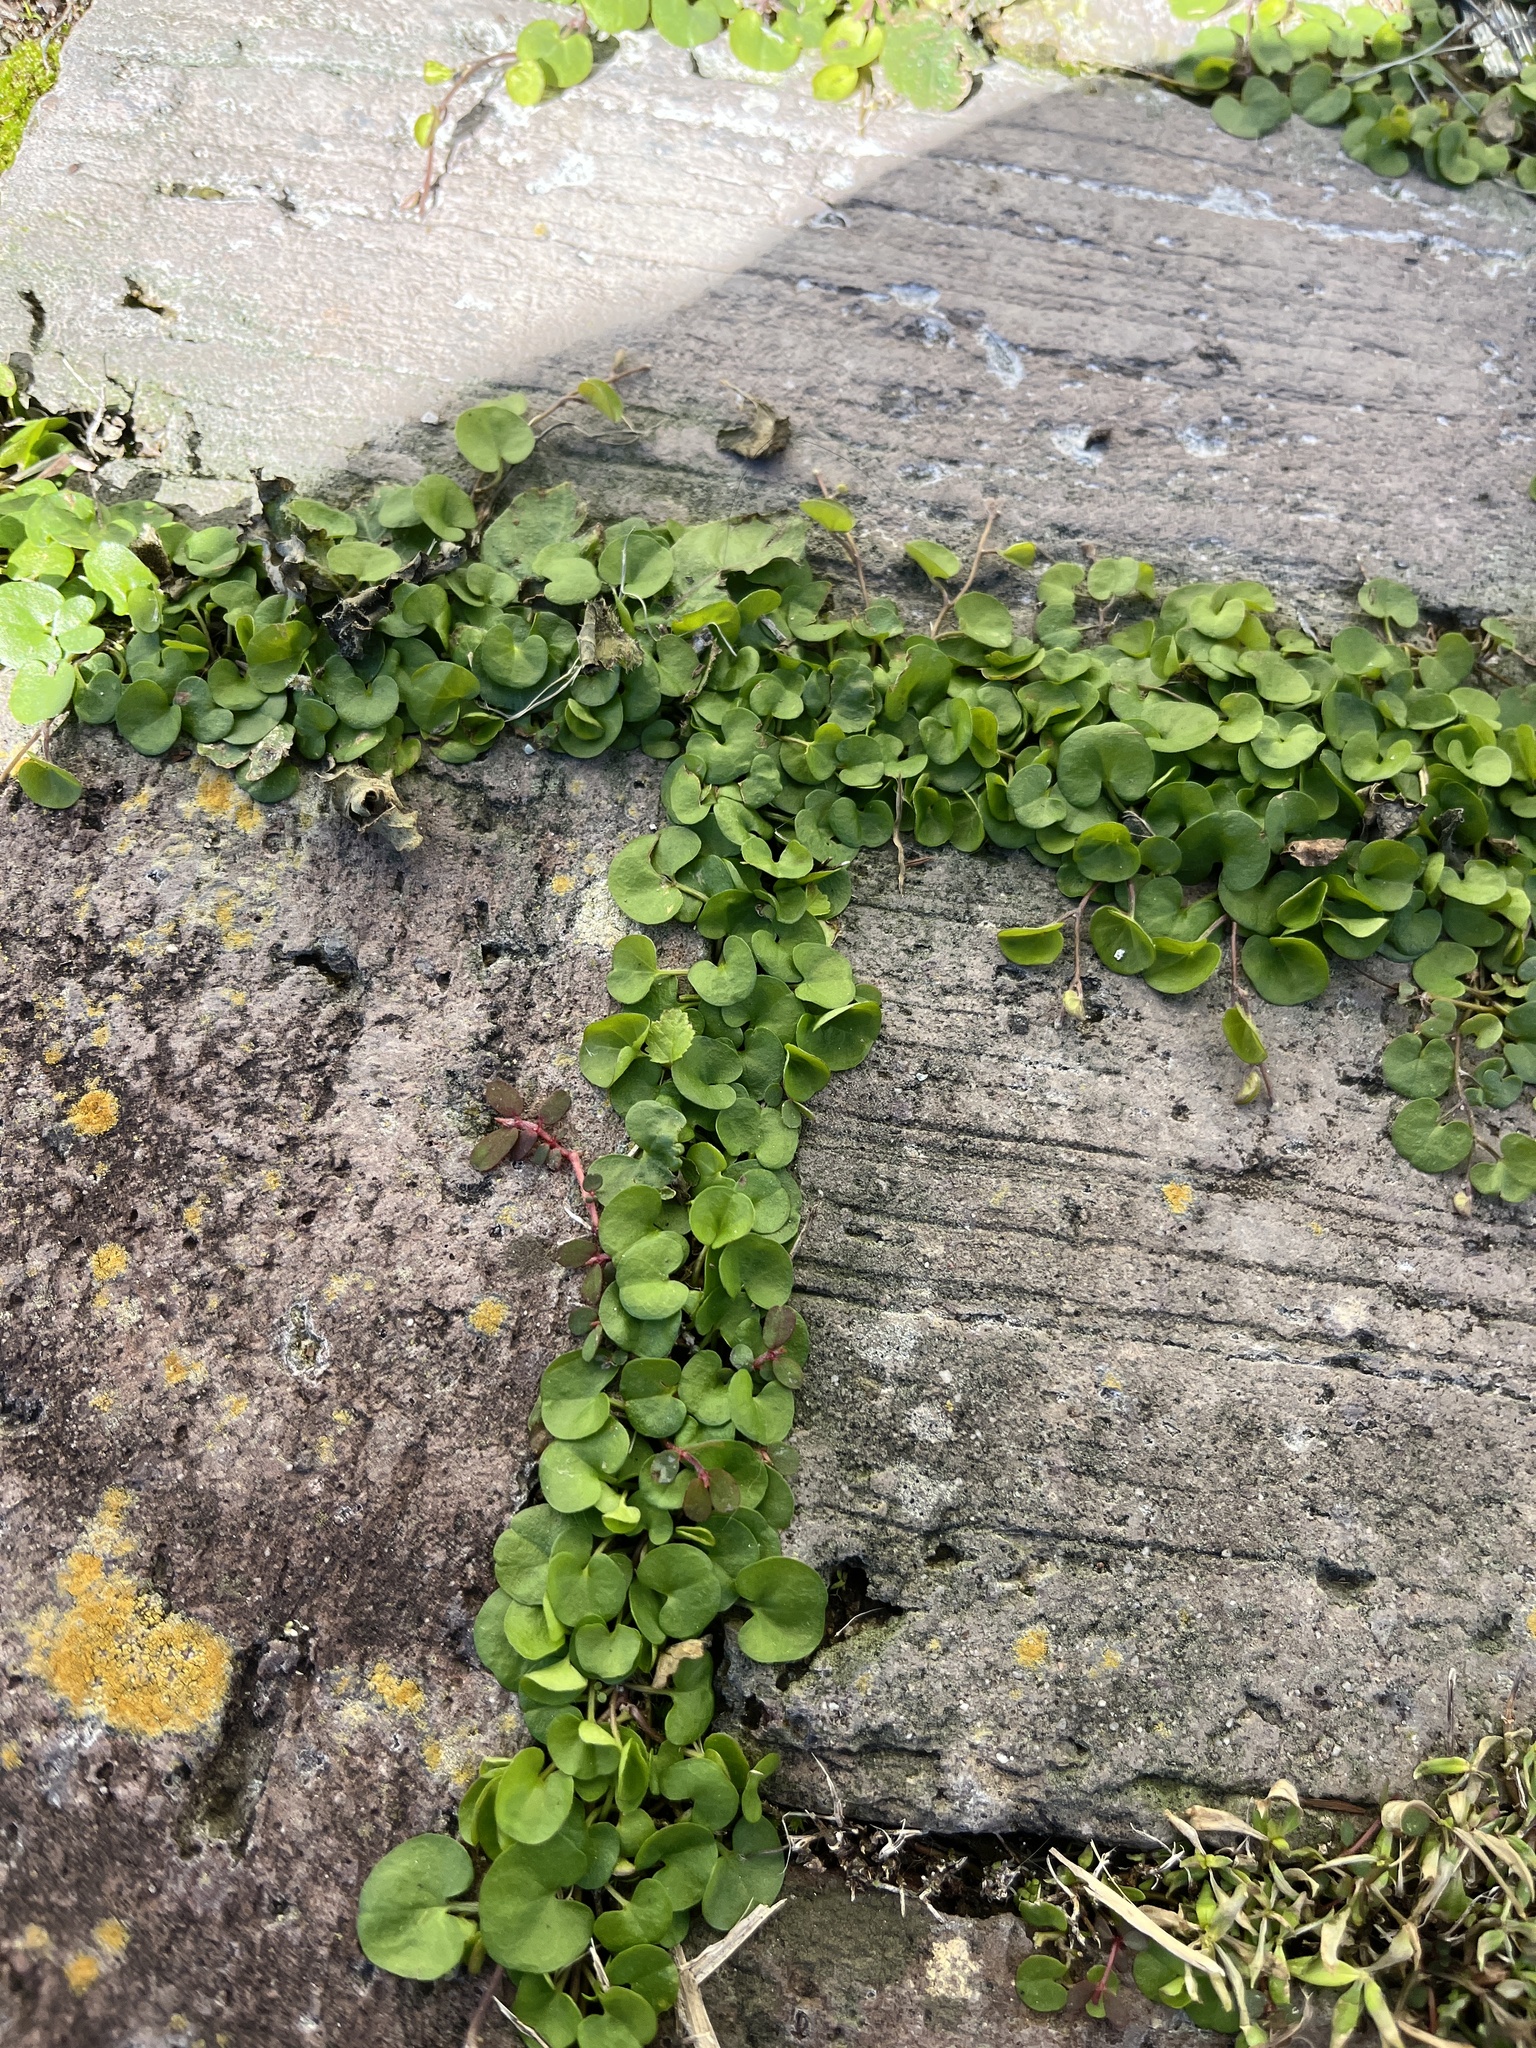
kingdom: Plantae
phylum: Tracheophyta
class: Magnoliopsida
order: Solanales
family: Convolvulaceae
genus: Dichondra
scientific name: Dichondra carolinensis
